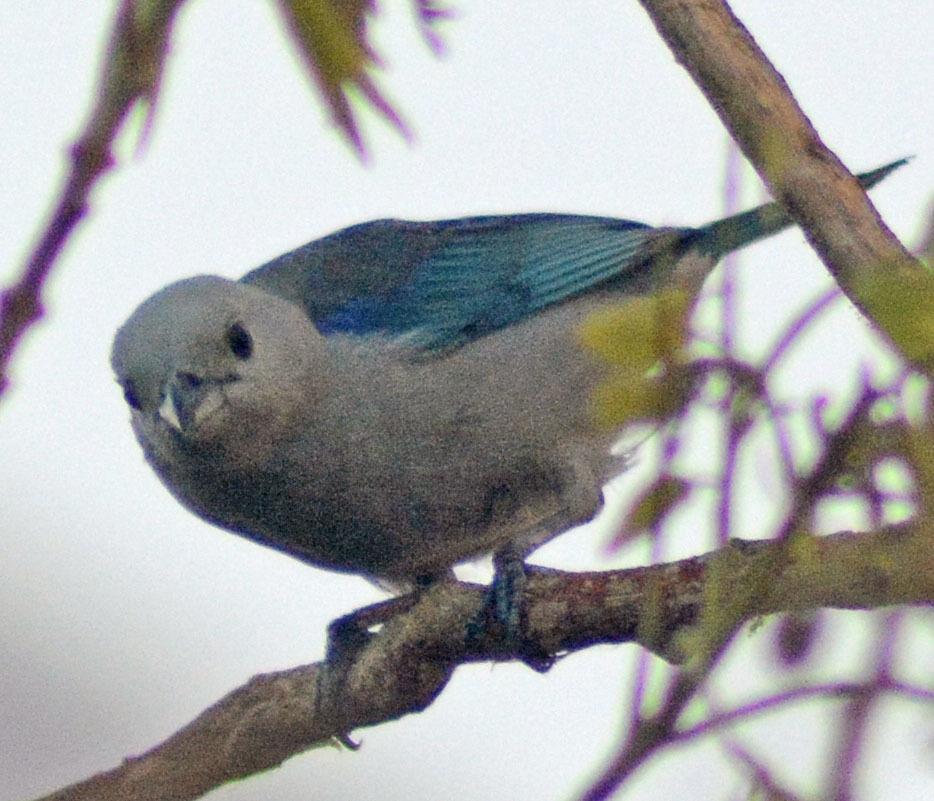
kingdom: Animalia
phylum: Chordata
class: Aves
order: Passeriformes
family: Thraupidae
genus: Thraupis
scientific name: Thraupis episcopus
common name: Blue-grey tanager
